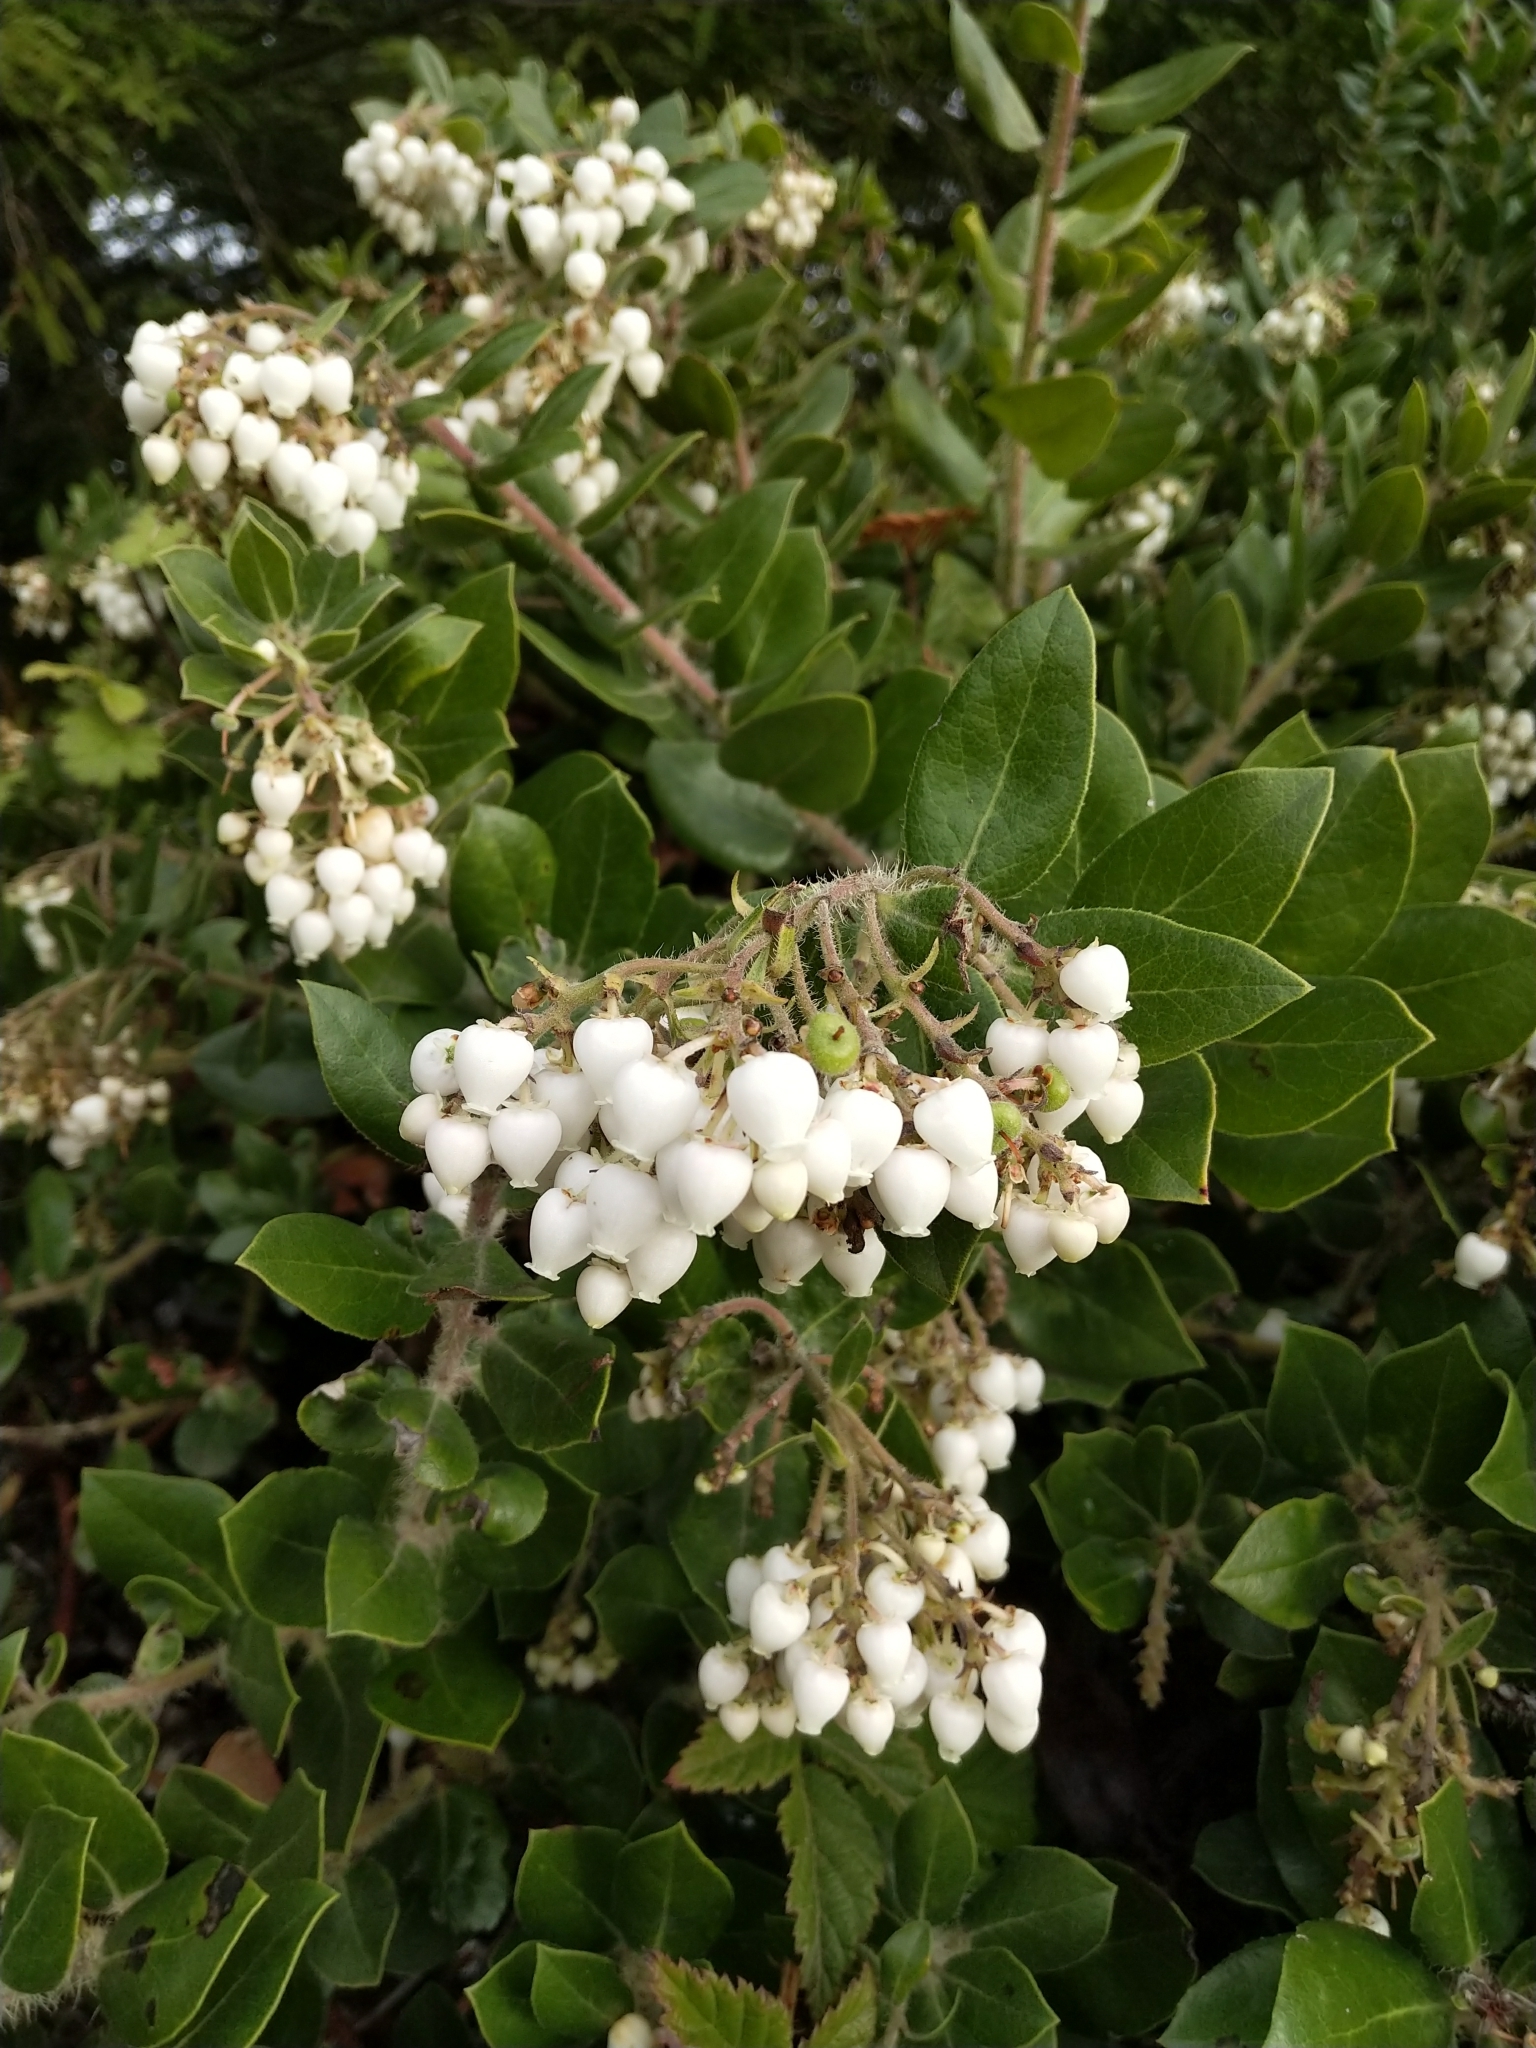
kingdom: Plantae
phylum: Tracheophyta
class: Magnoliopsida
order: Ericales
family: Ericaceae
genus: Arctostaphylos
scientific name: Arctostaphylos crustacea
